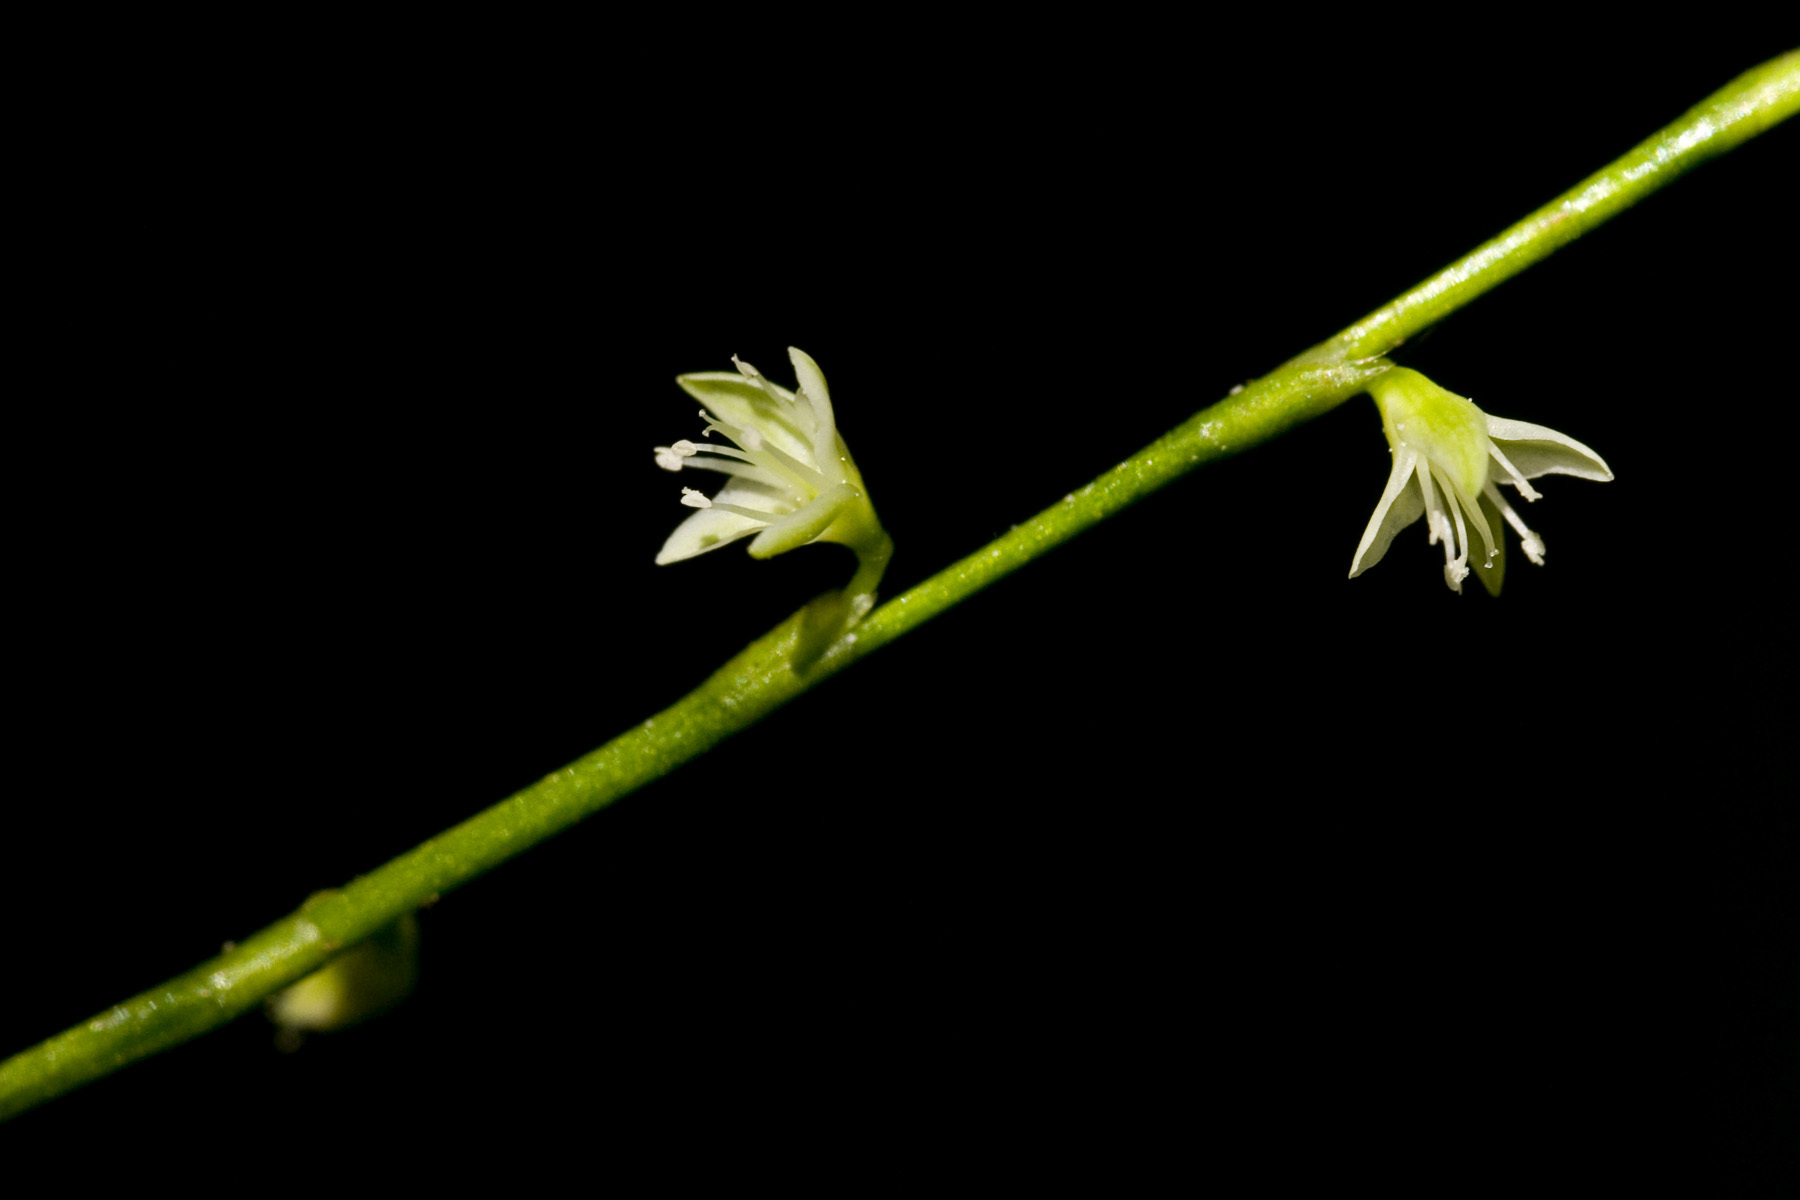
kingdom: Plantae
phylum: Tracheophyta
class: Magnoliopsida
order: Caryophyllales
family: Polygonaceae
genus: Persicaria
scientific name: Persicaria virginiana
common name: Jumpseed
